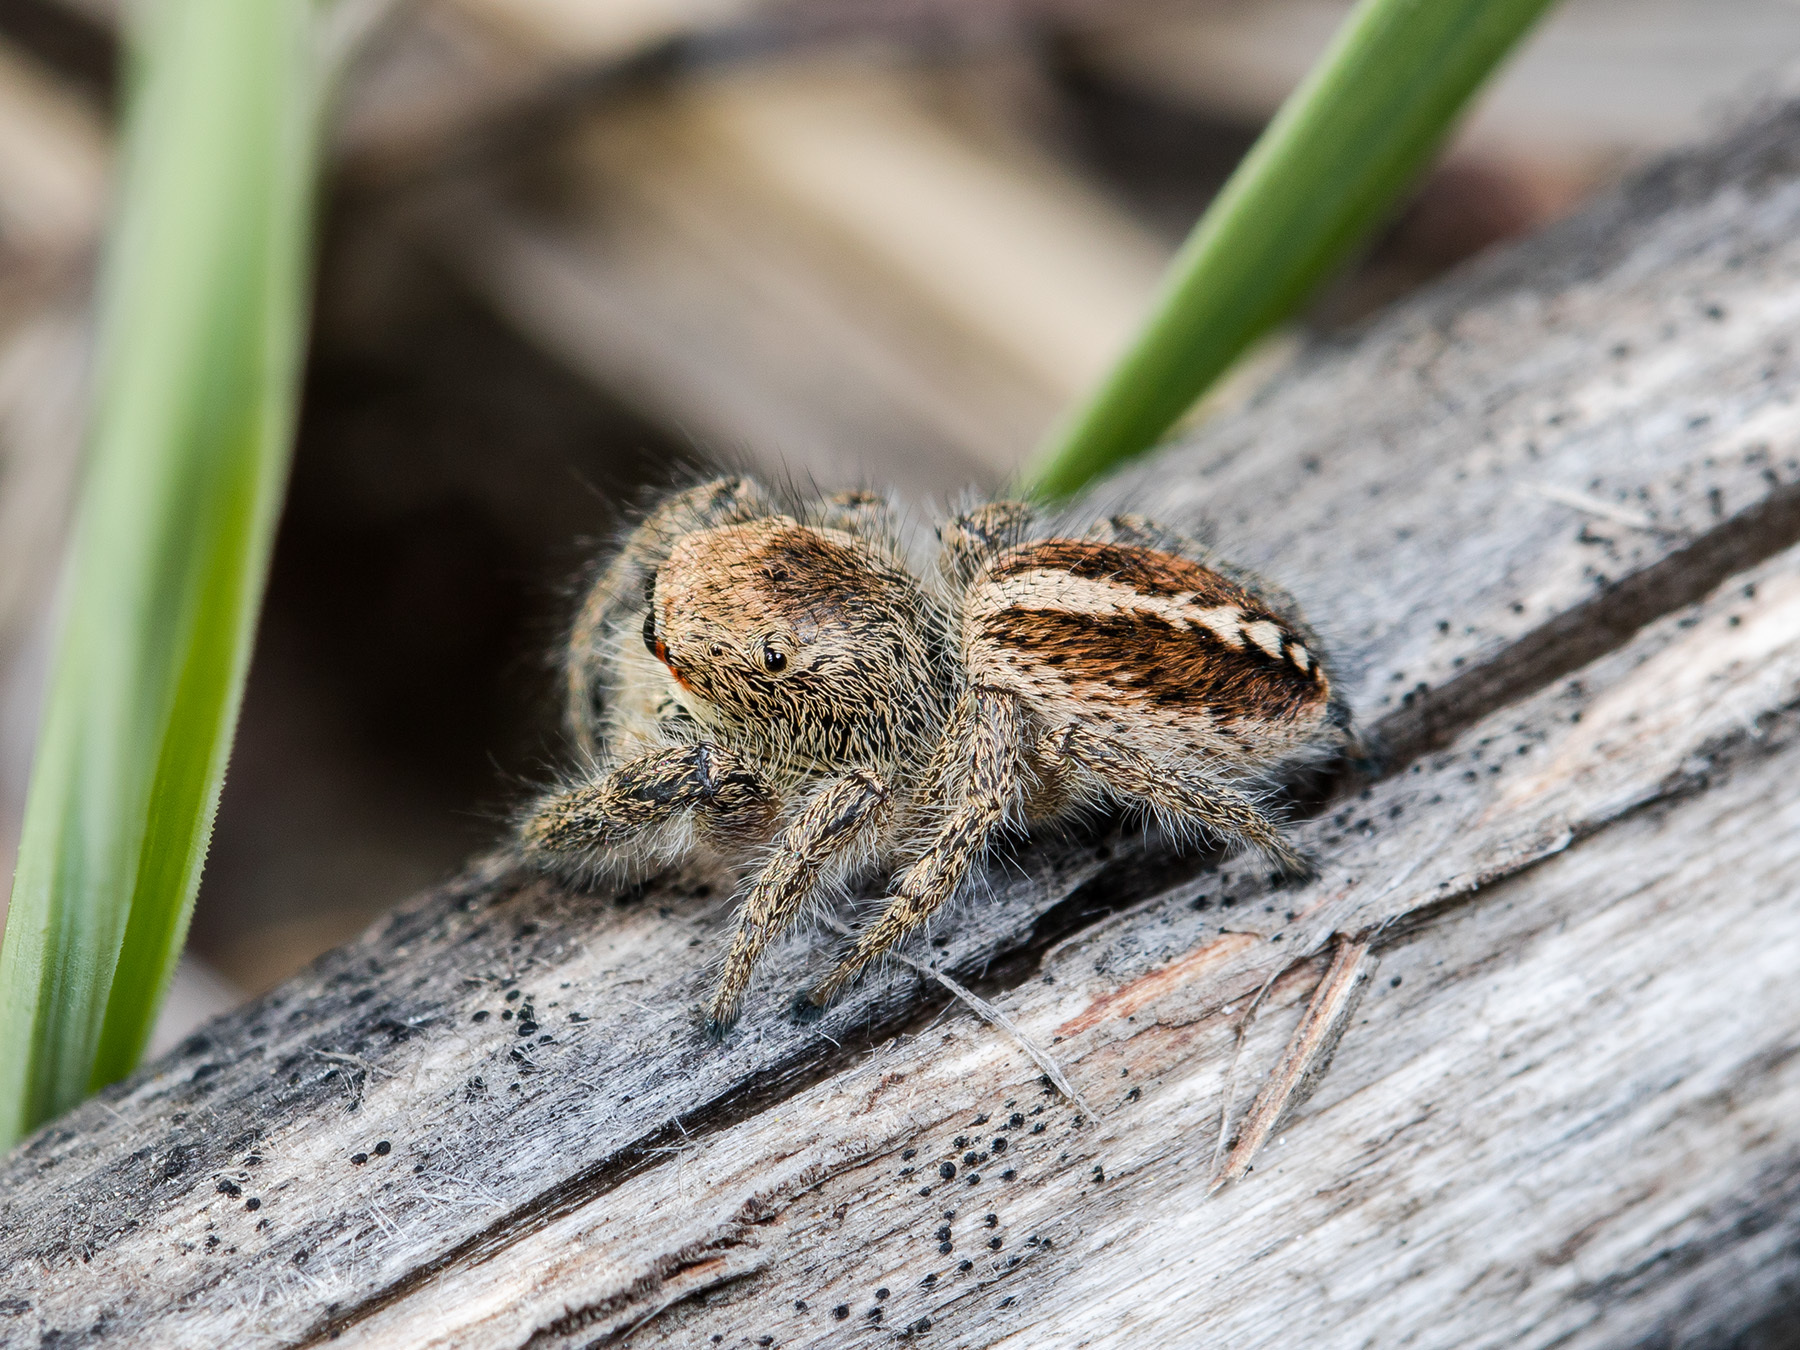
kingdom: Animalia
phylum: Arthropoda
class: Arachnida
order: Araneae
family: Salticidae
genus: Pellenes
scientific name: Pellenes seriatus
